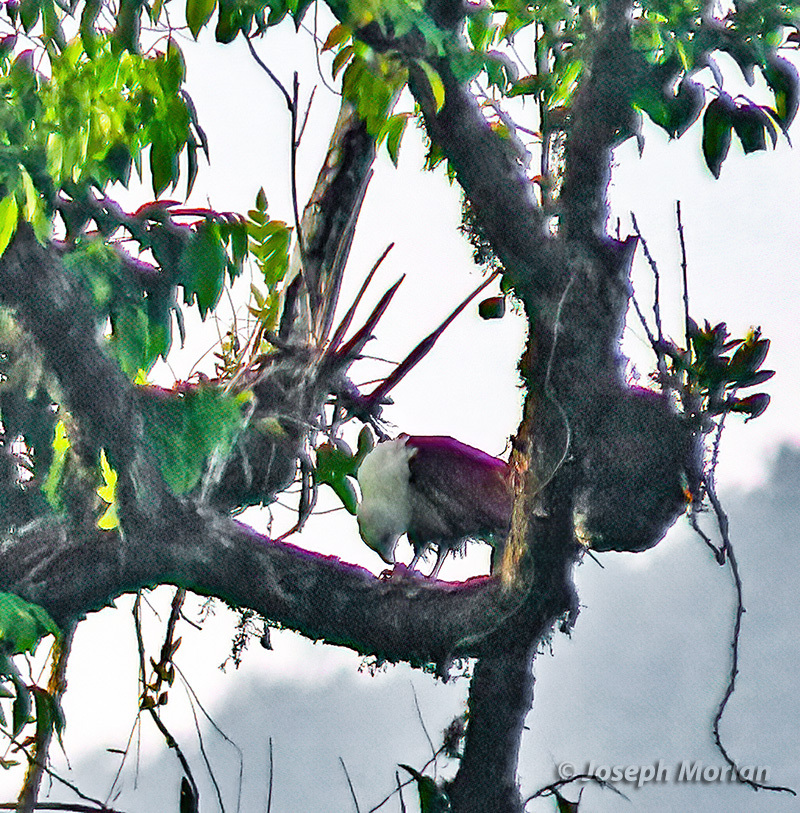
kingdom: Animalia
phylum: Chordata
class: Aves
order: Accipitriformes
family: Accipitridae
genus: Haliastur
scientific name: Haliastur indus
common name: Brahminy kite
